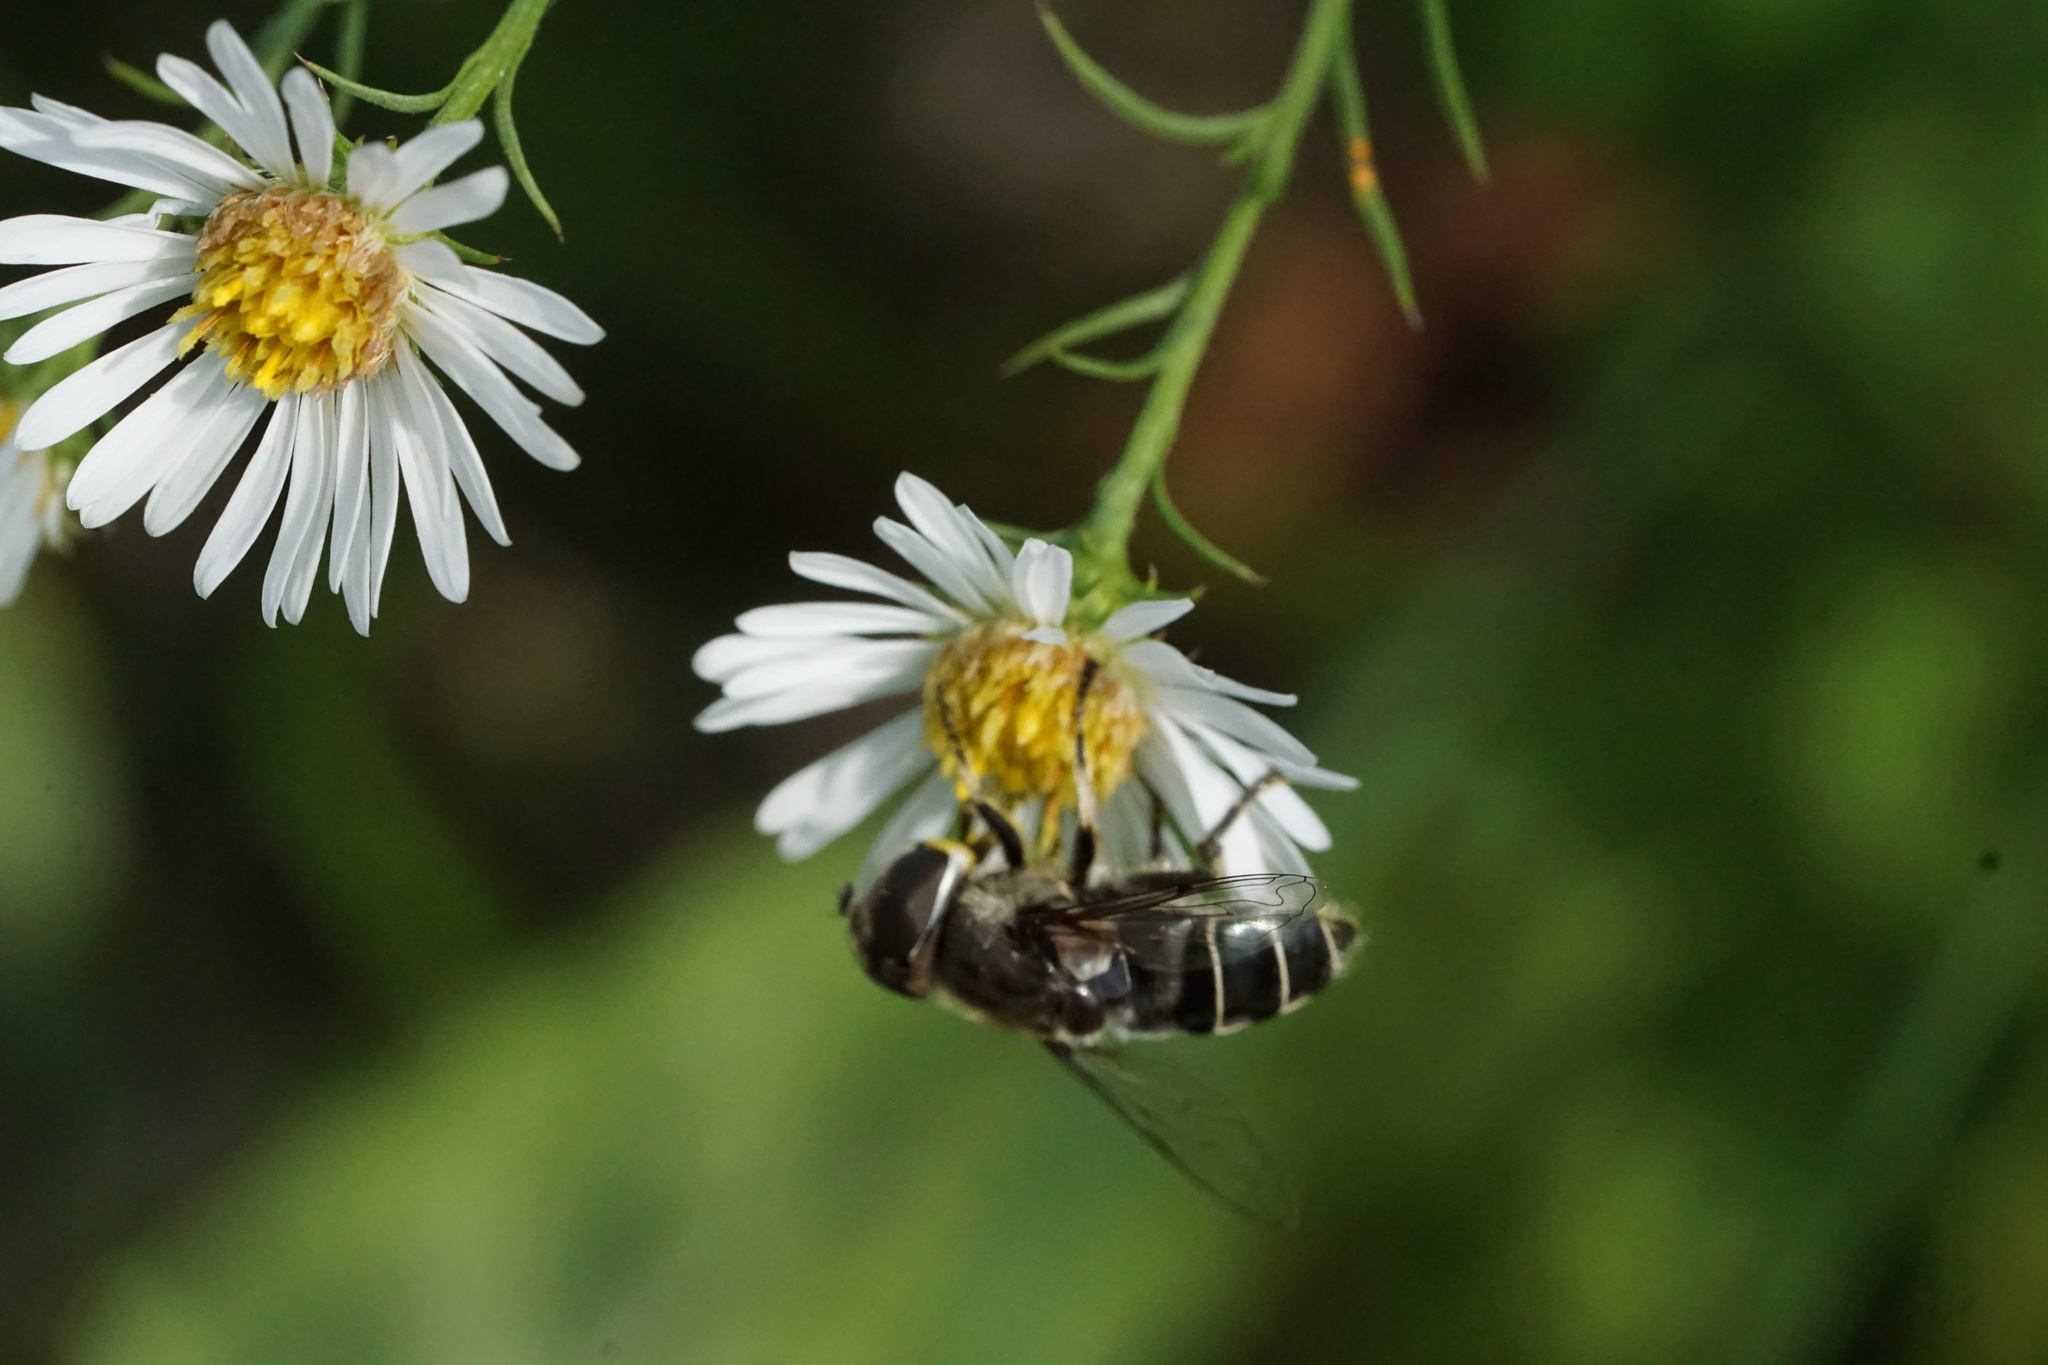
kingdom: Animalia
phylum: Arthropoda
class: Insecta
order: Diptera
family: Syrphidae
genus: Eristalis
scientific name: Eristalis dimidiata
